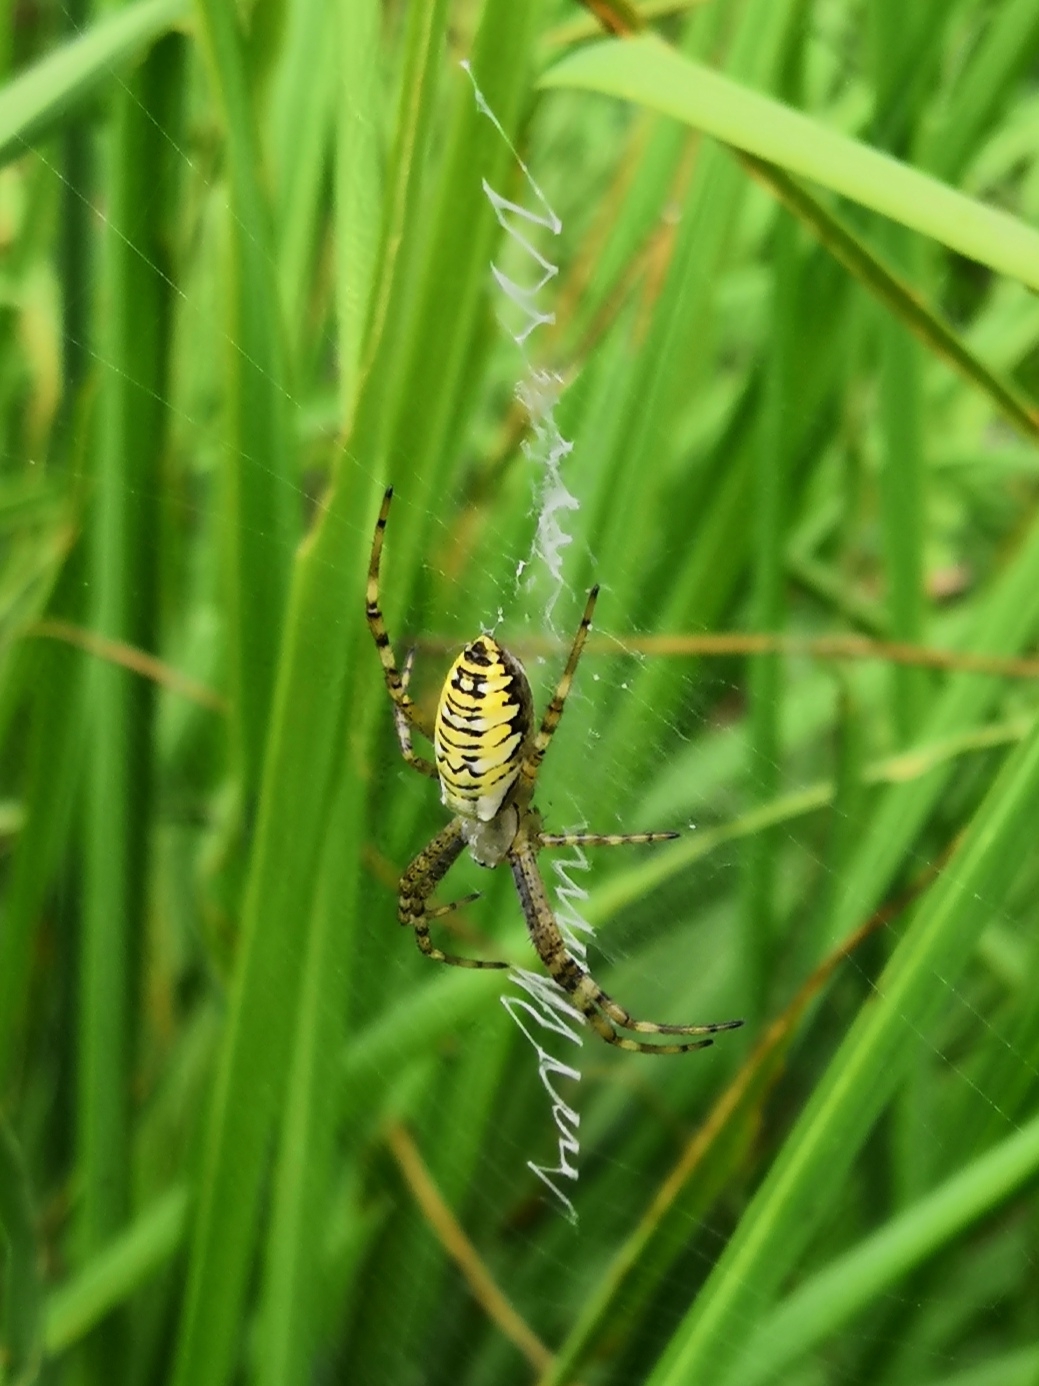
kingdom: Animalia
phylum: Arthropoda
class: Arachnida
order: Araneae
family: Araneidae
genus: Argiope
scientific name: Argiope bruennichi
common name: Wasp spider
